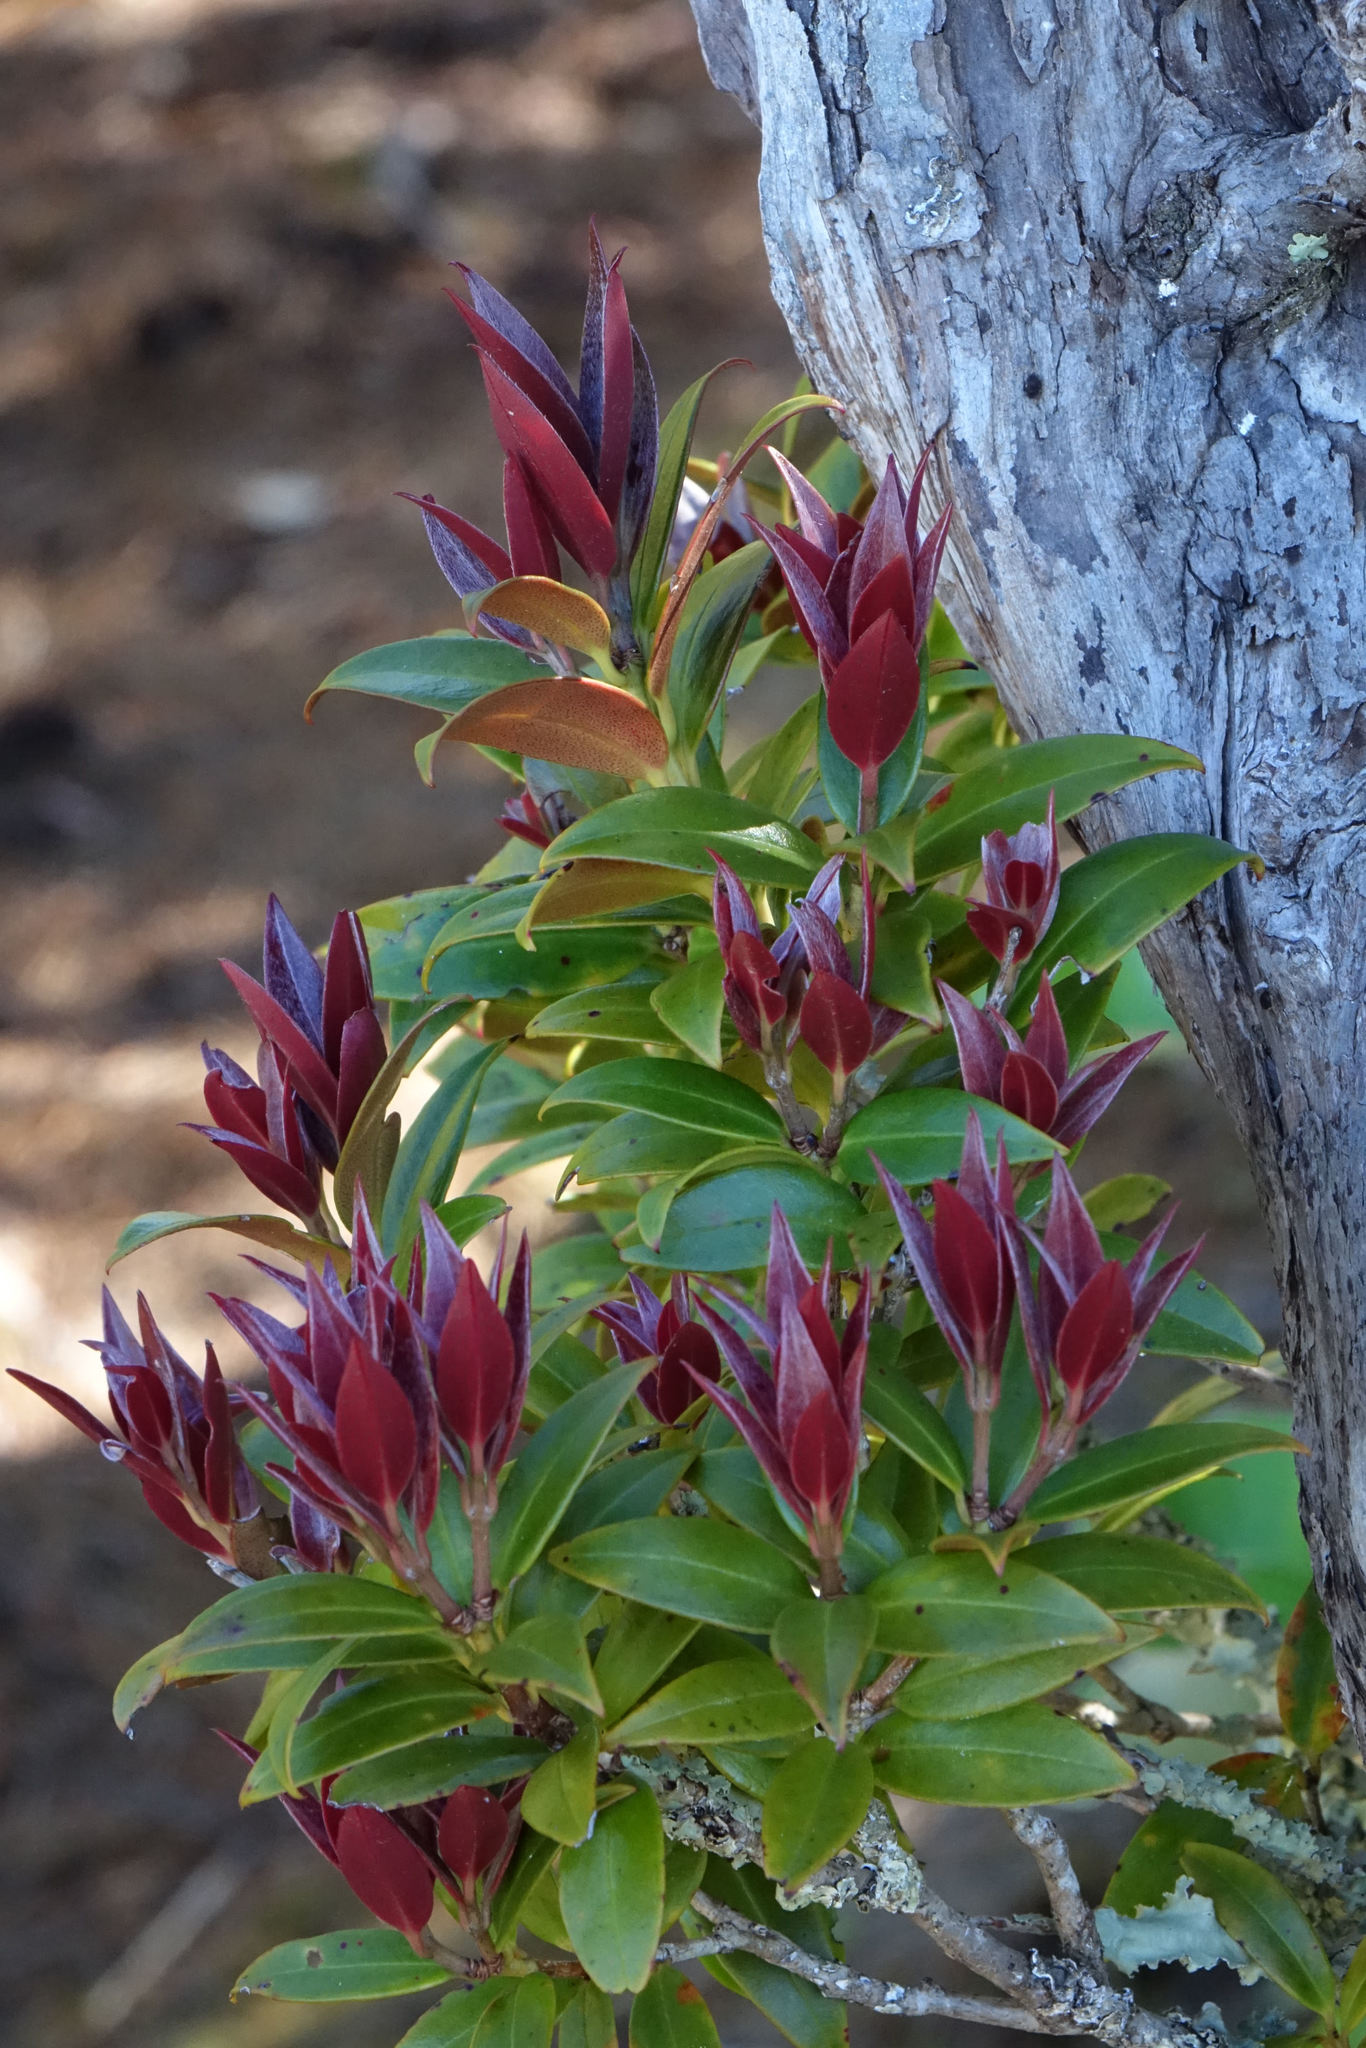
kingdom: Plantae
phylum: Tracheophyta
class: Magnoliopsida
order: Myrtales
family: Myrtaceae
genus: Metrosideros
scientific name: Metrosideros umbellata
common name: Southern rata
